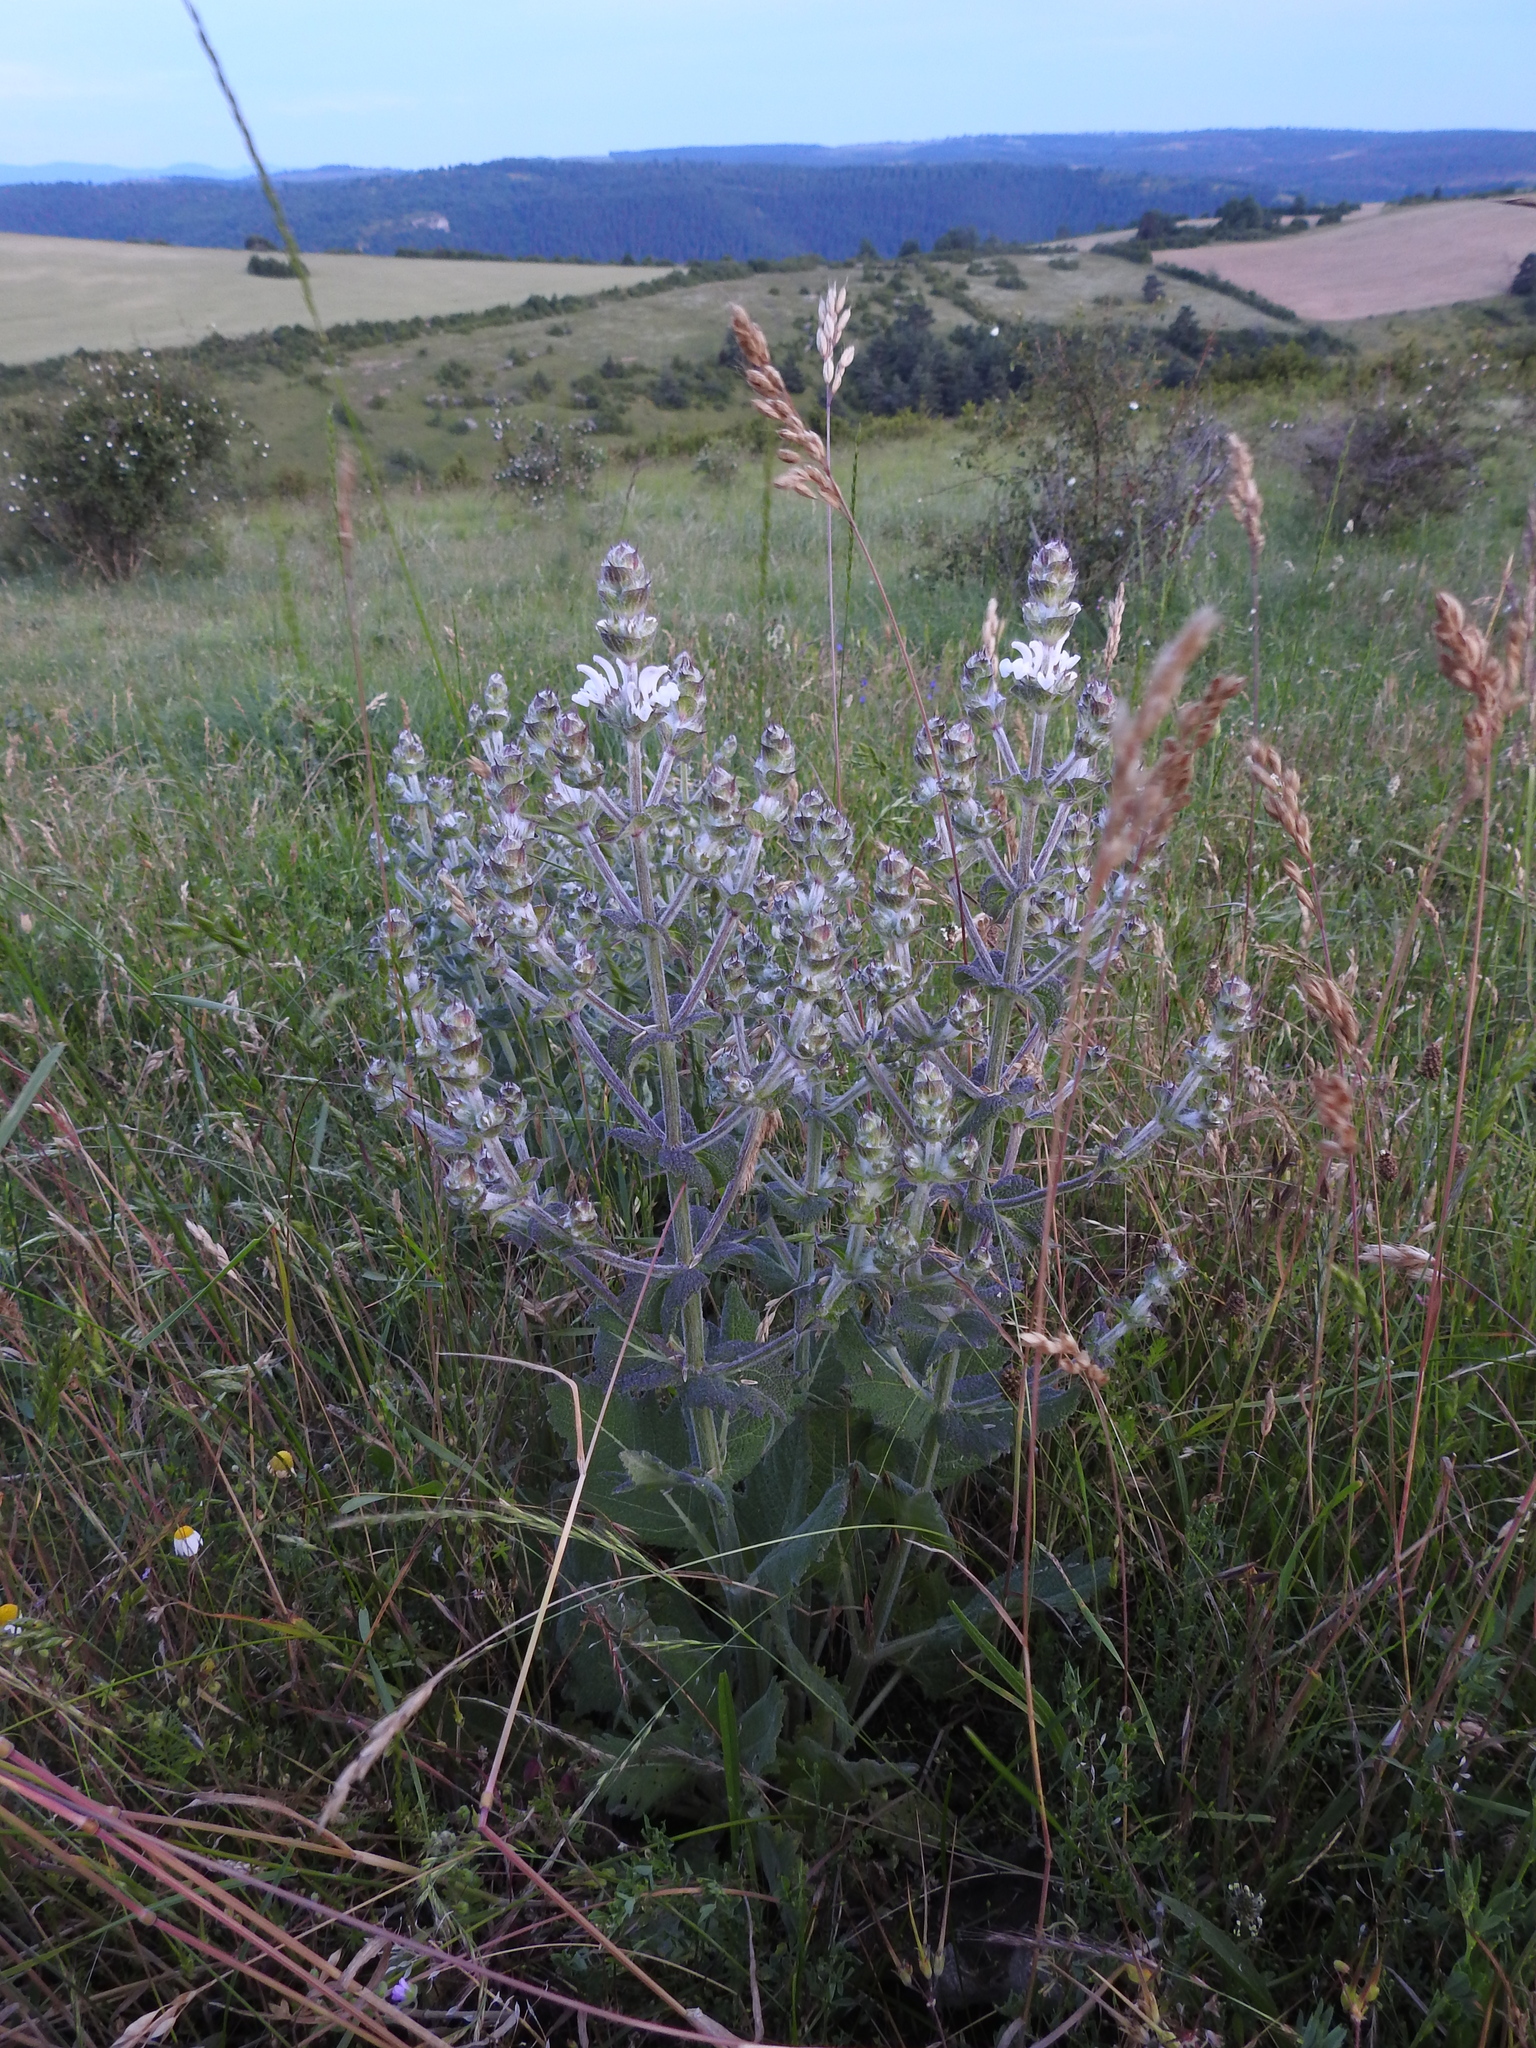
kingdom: Plantae
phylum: Tracheophyta
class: Magnoliopsida
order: Lamiales
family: Lamiaceae
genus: Salvia
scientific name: Salvia aethiopis
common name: Mediterranean sage
